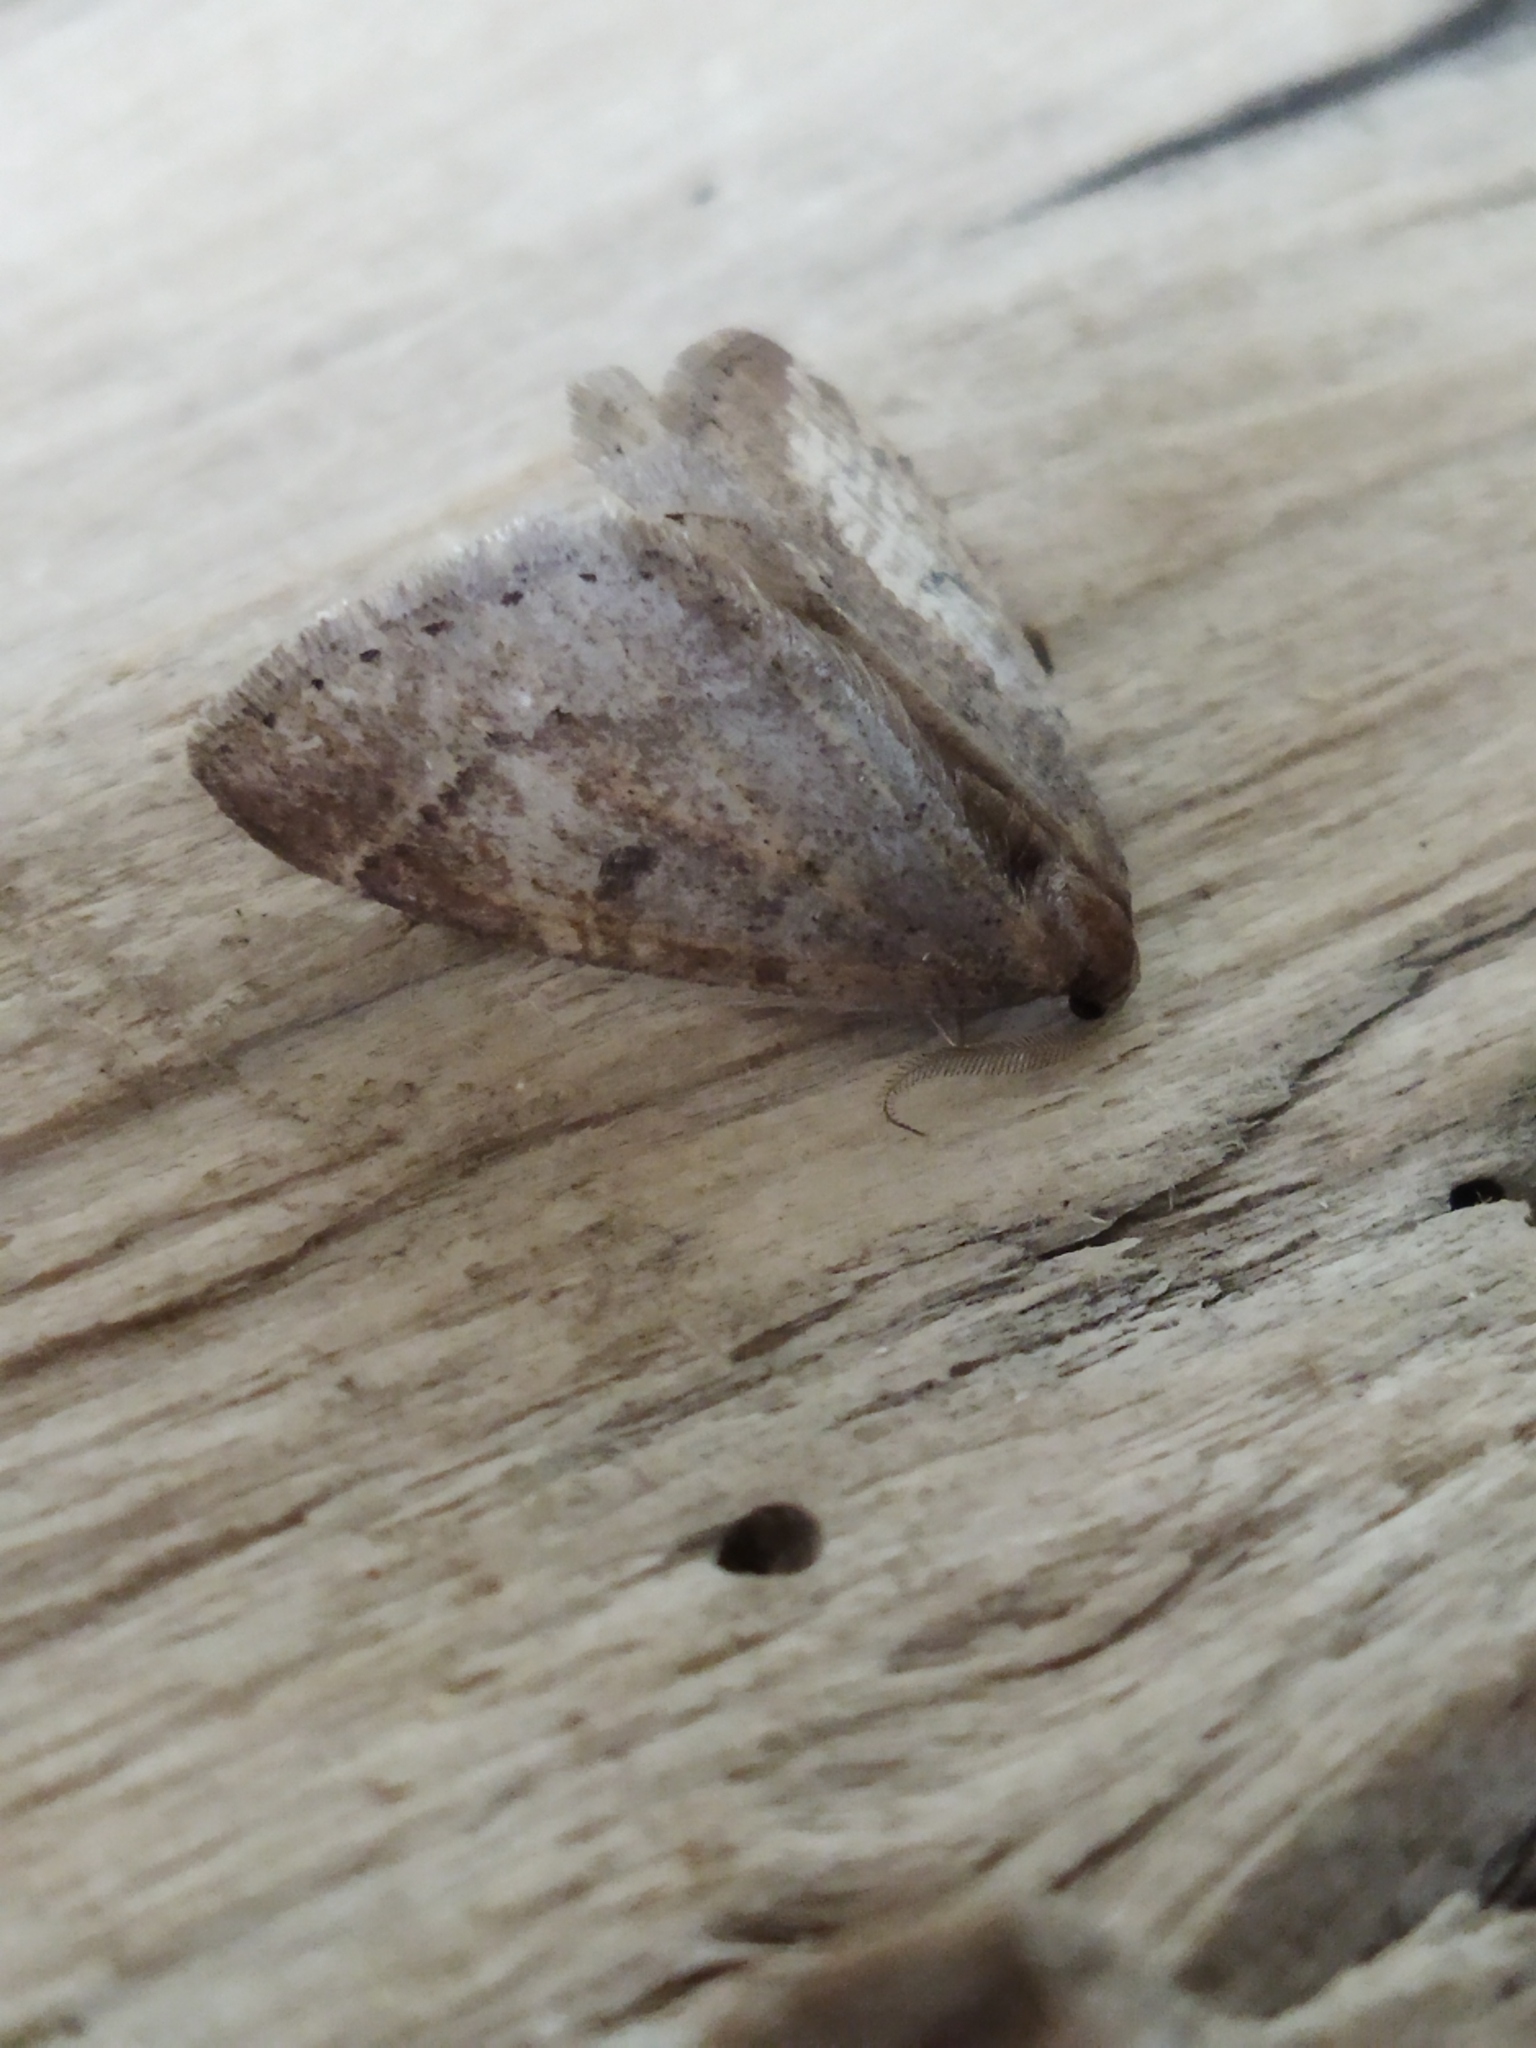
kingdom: Animalia
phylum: Arthropoda
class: Insecta
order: Lepidoptera
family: Geometridae
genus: Theria
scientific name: Theria rupicapraria
